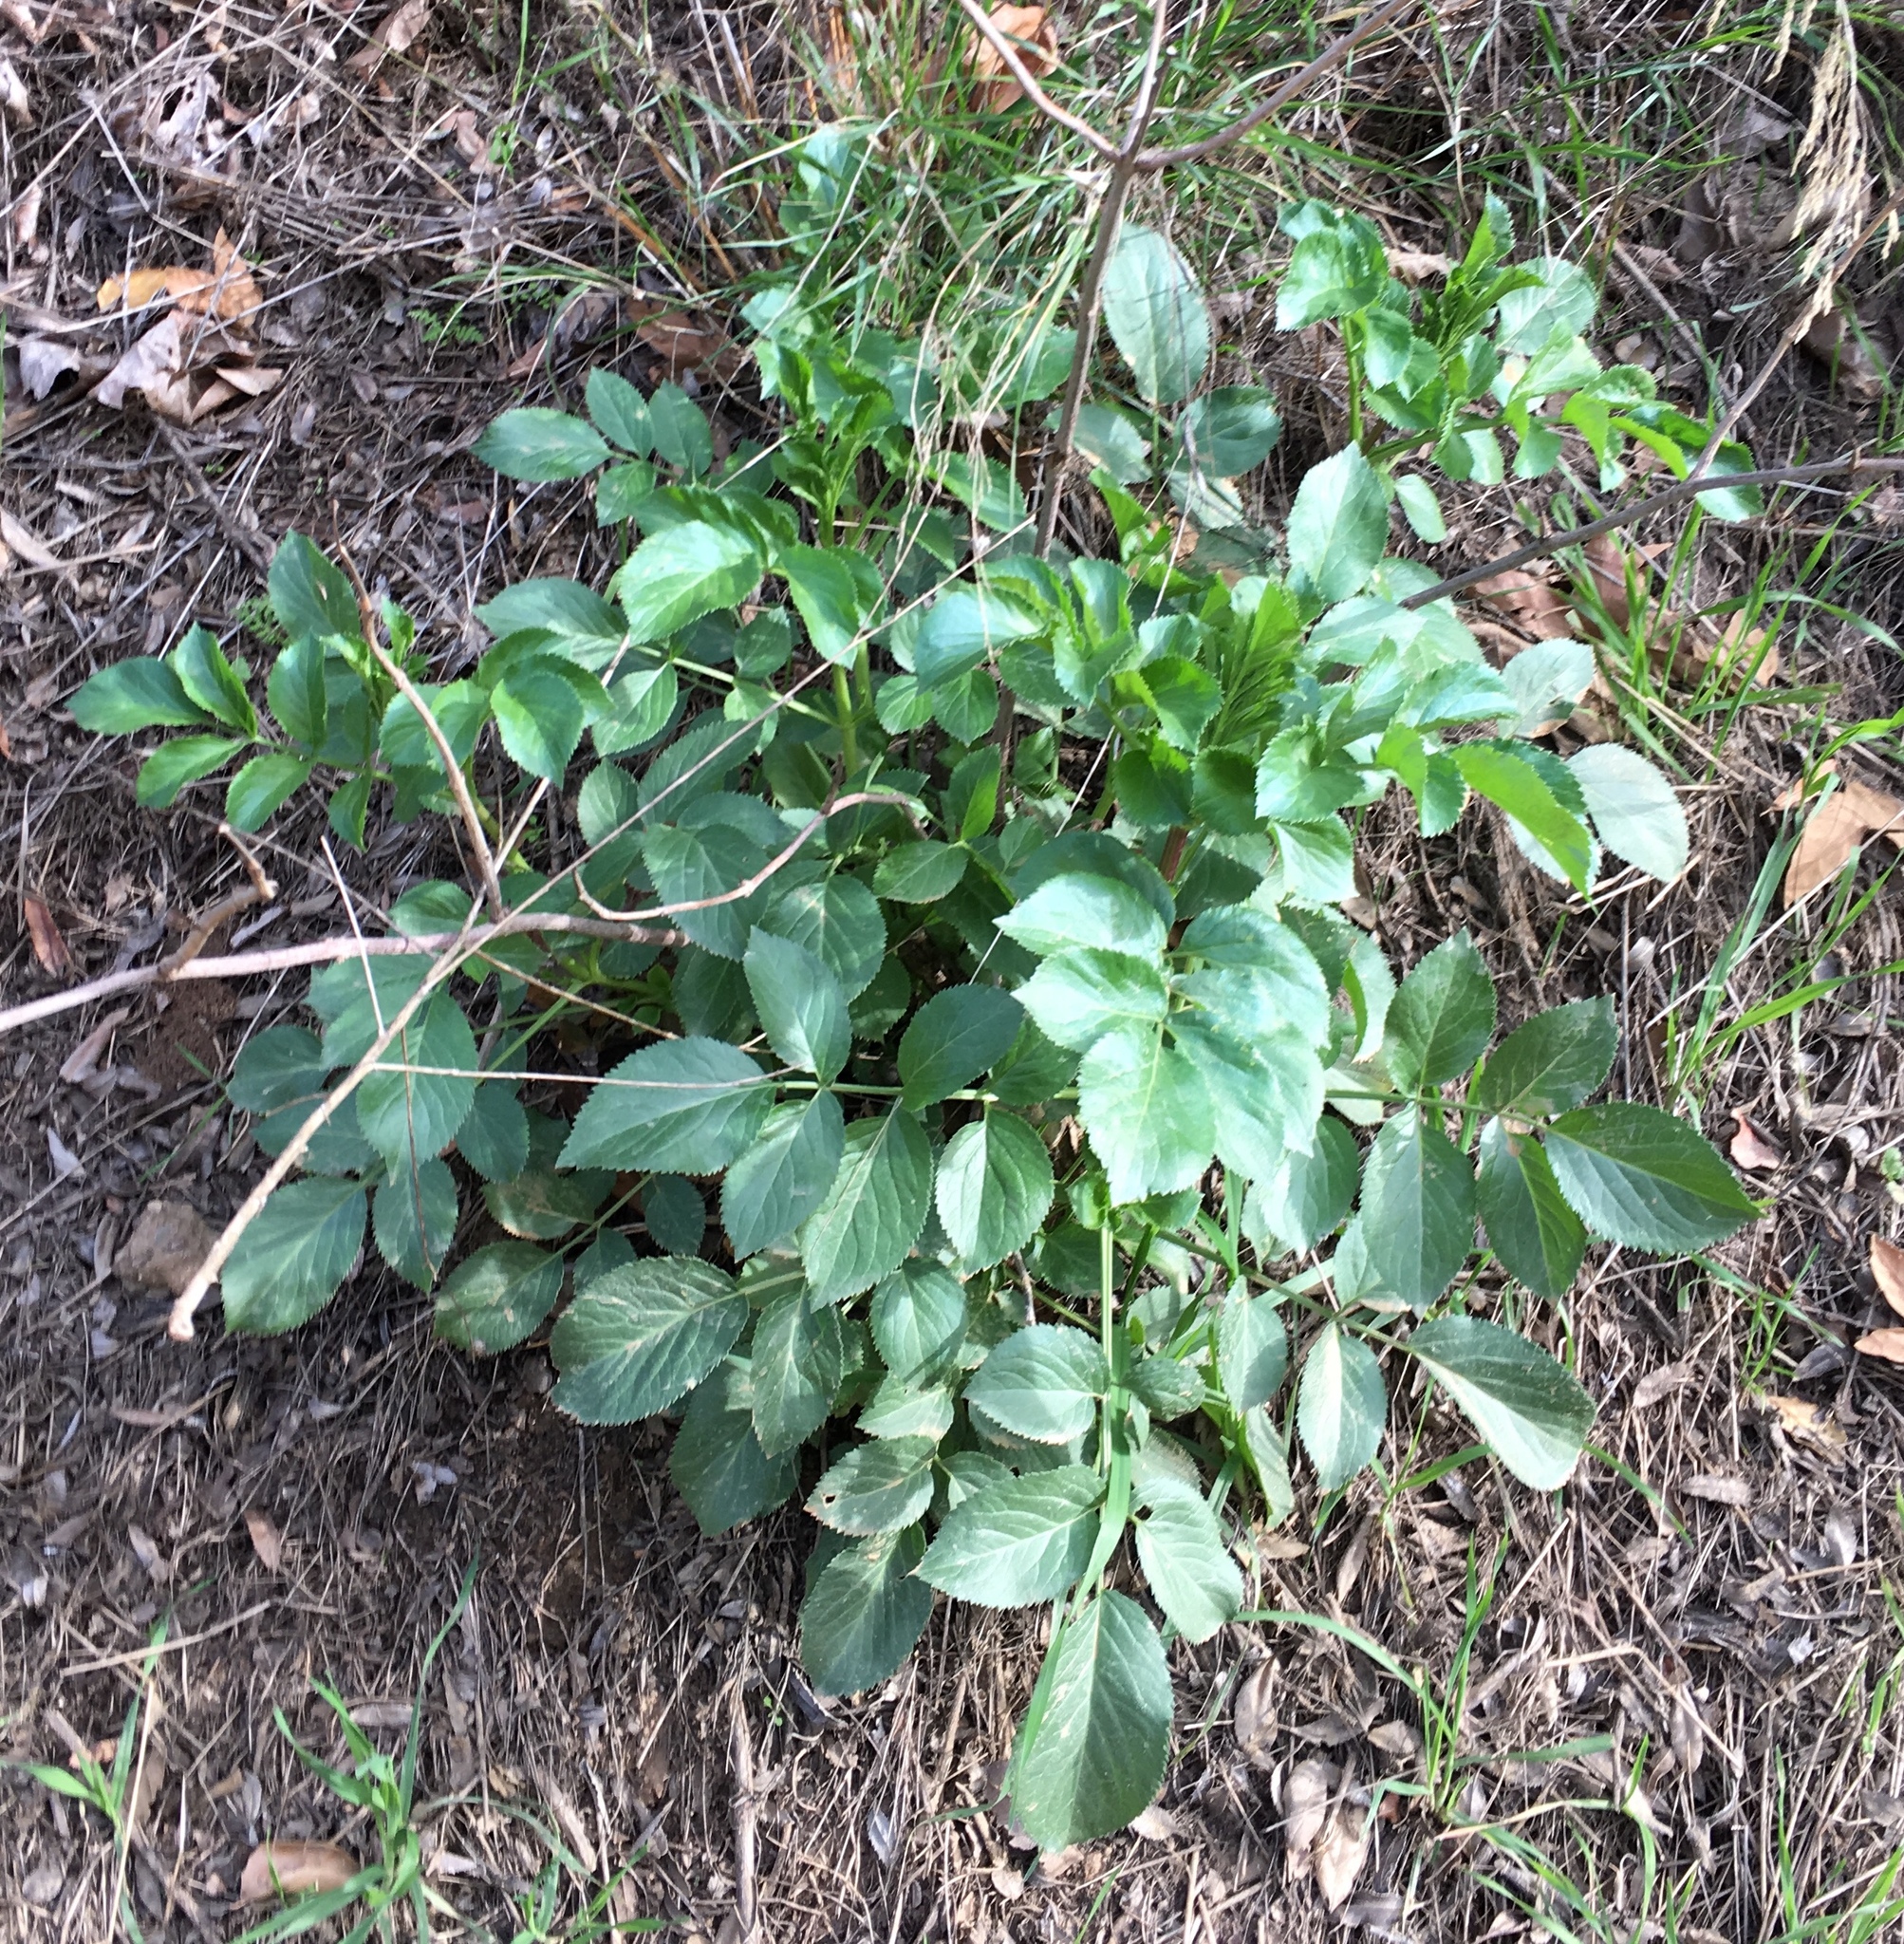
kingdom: Plantae
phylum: Tracheophyta
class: Magnoliopsida
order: Dipsacales
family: Viburnaceae
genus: Sambucus
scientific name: Sambucus cerulea
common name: Blue elder
